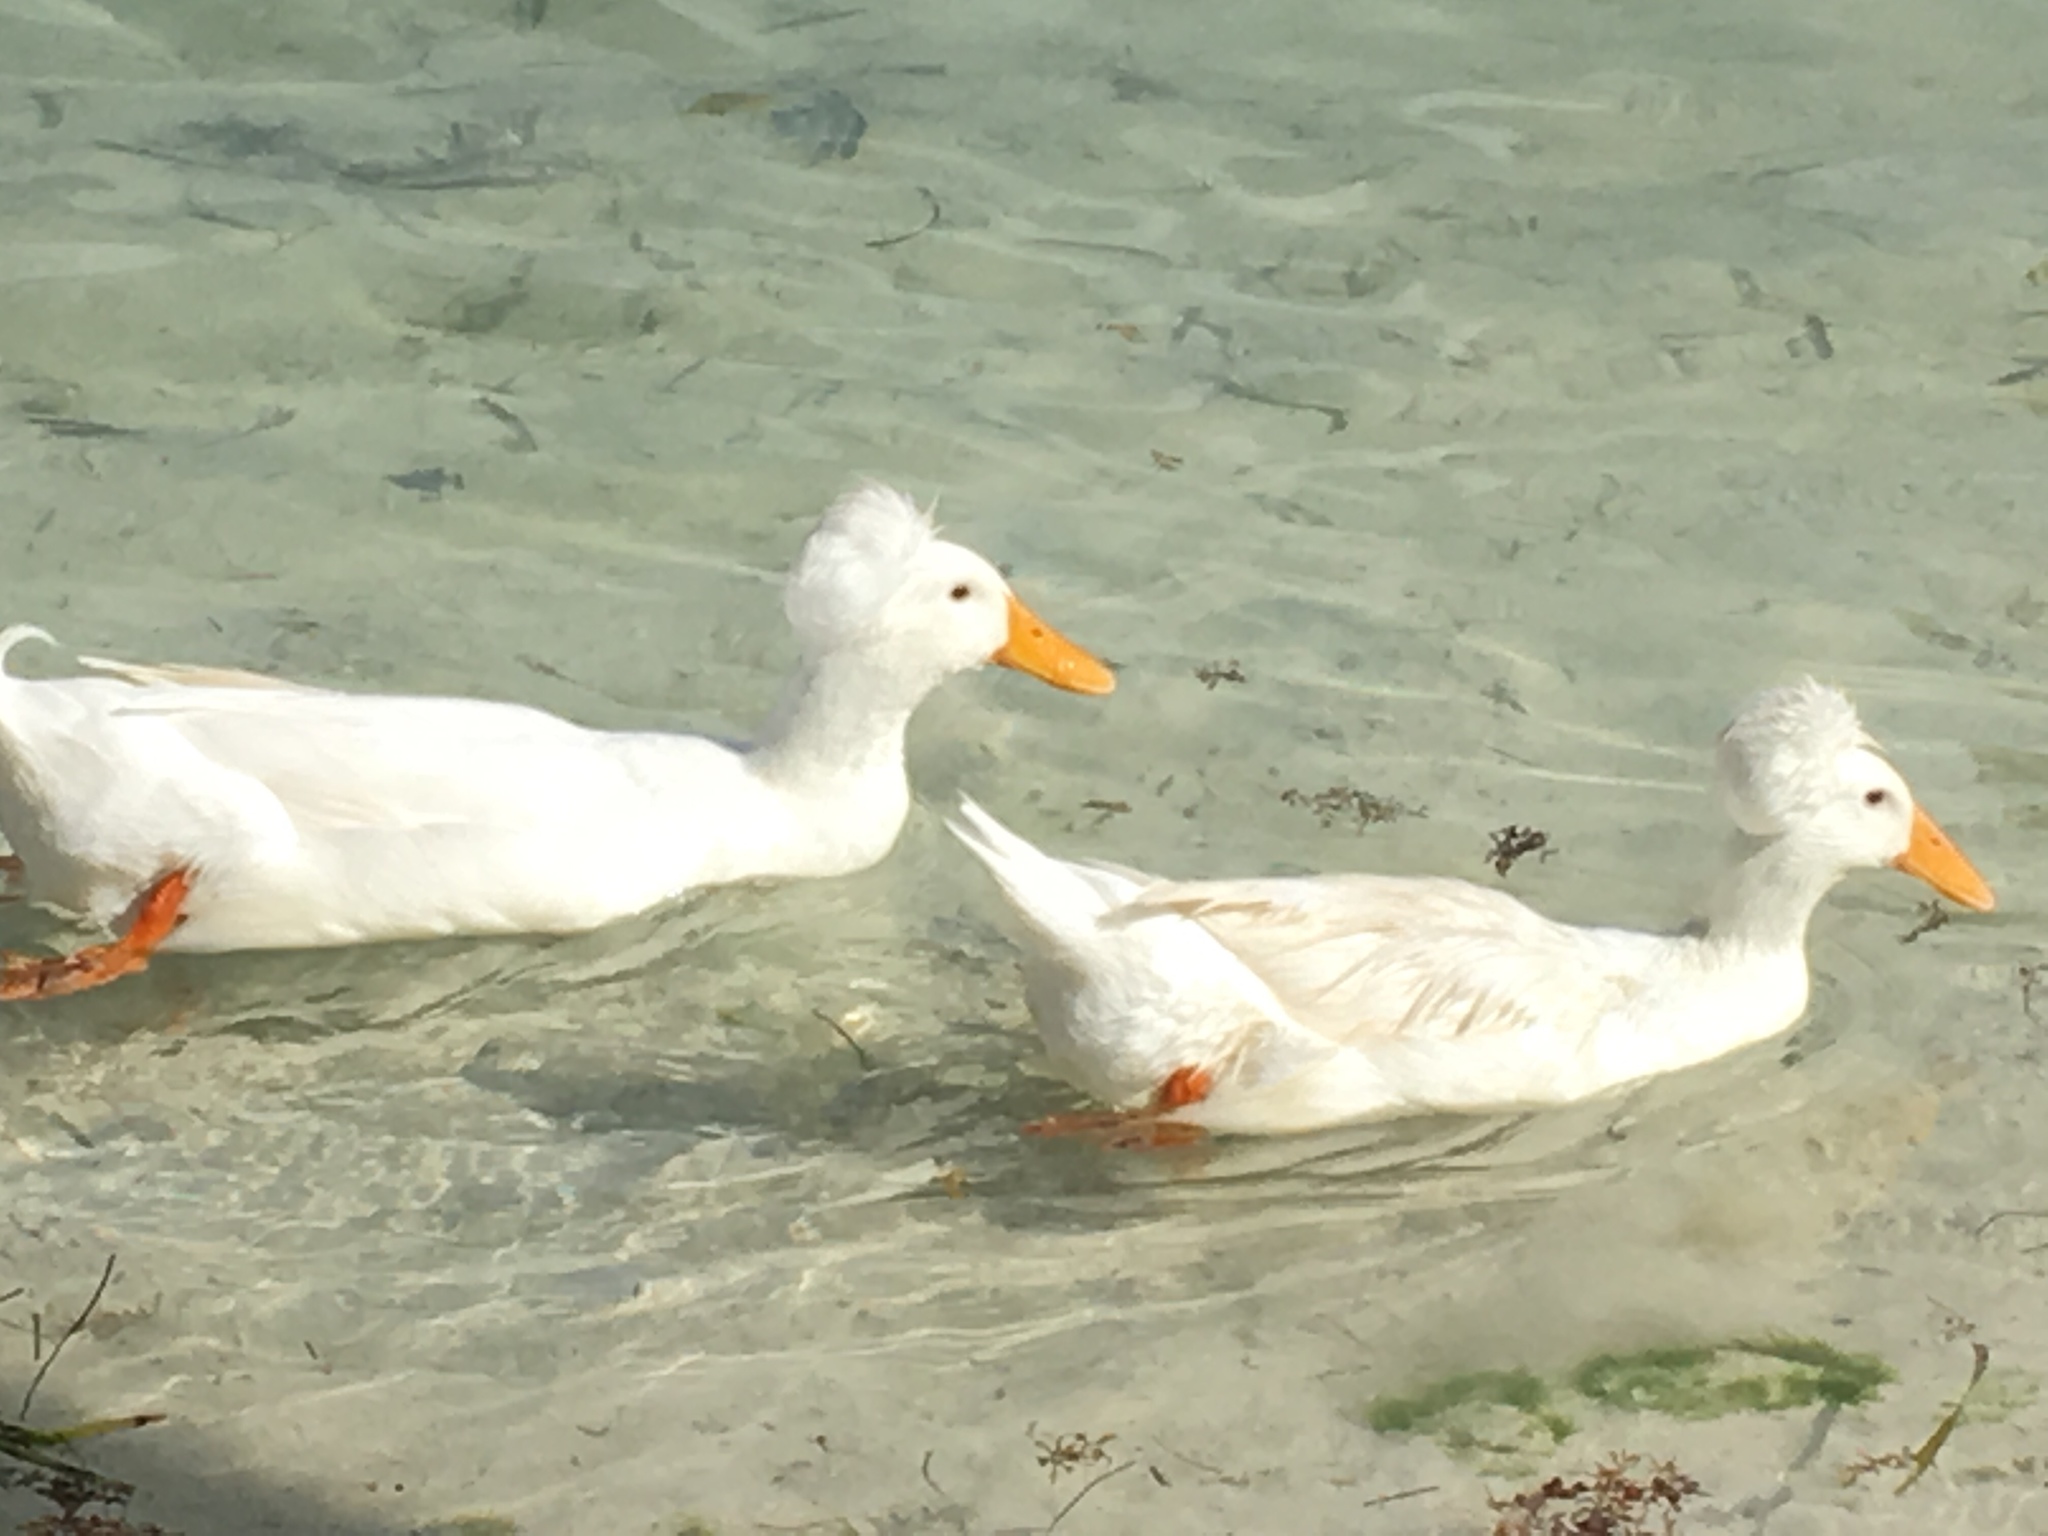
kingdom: Animalia
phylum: Chordata
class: Aves
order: Anseriformes
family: Anatidae
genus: Anas
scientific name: Anas platyrhynchos
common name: Mallard
